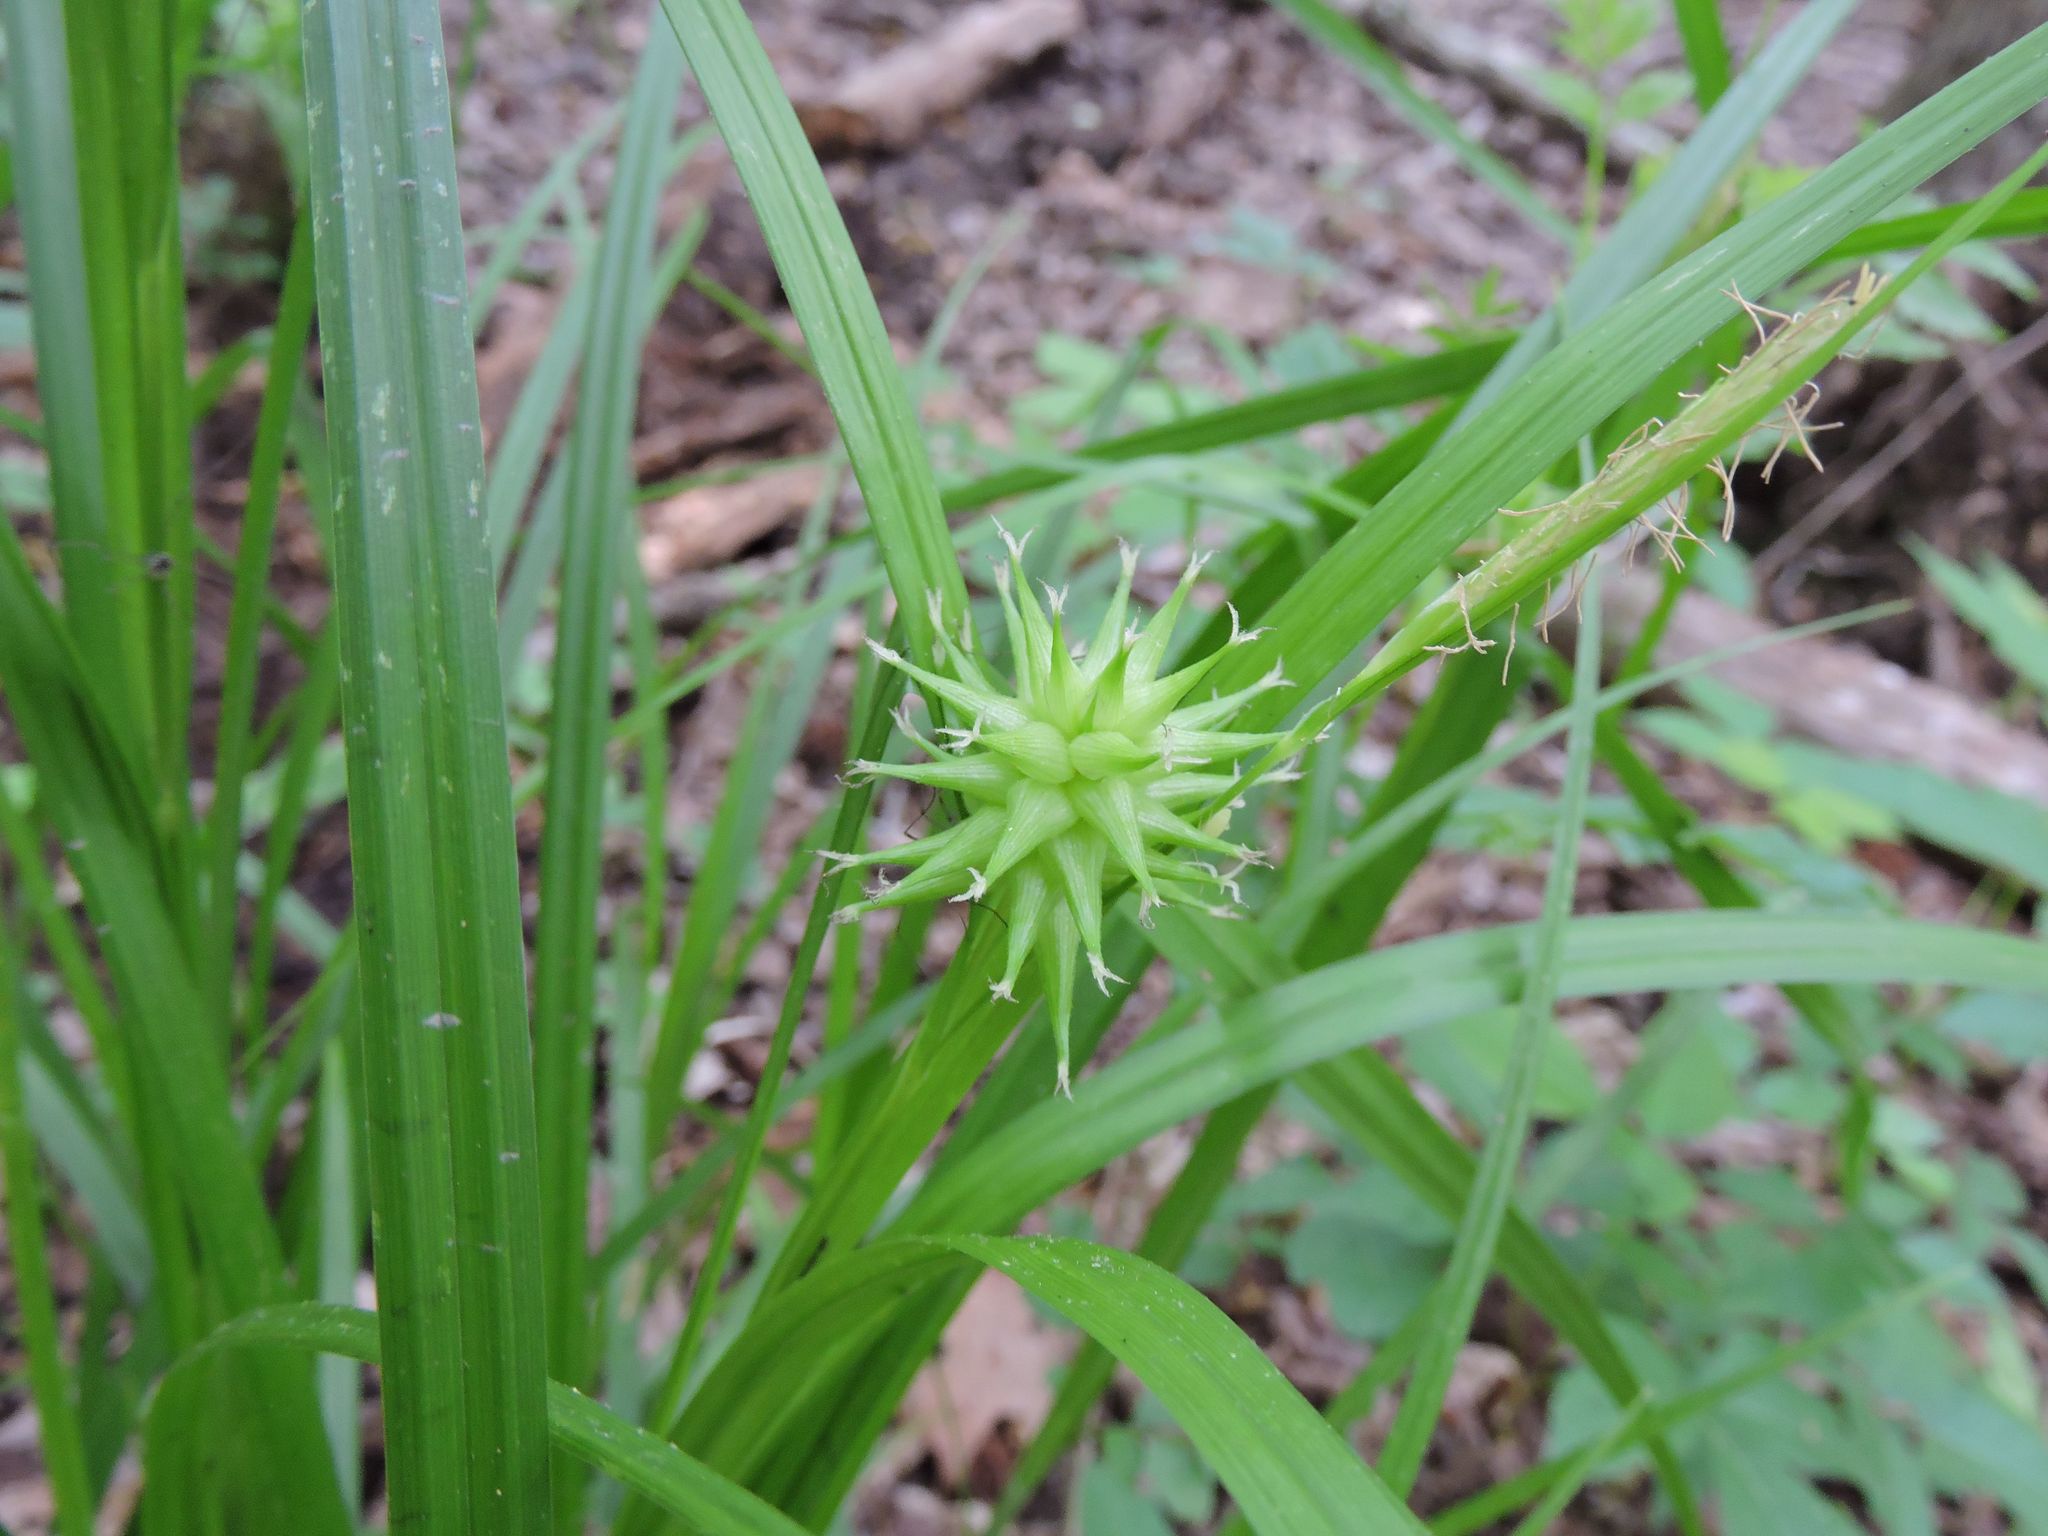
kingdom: Plantae
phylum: Tracheophyta
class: Liliopsida
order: Poales
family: Cyperaceae
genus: Carex
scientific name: Carex grayi
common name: Asa gray's sedge
